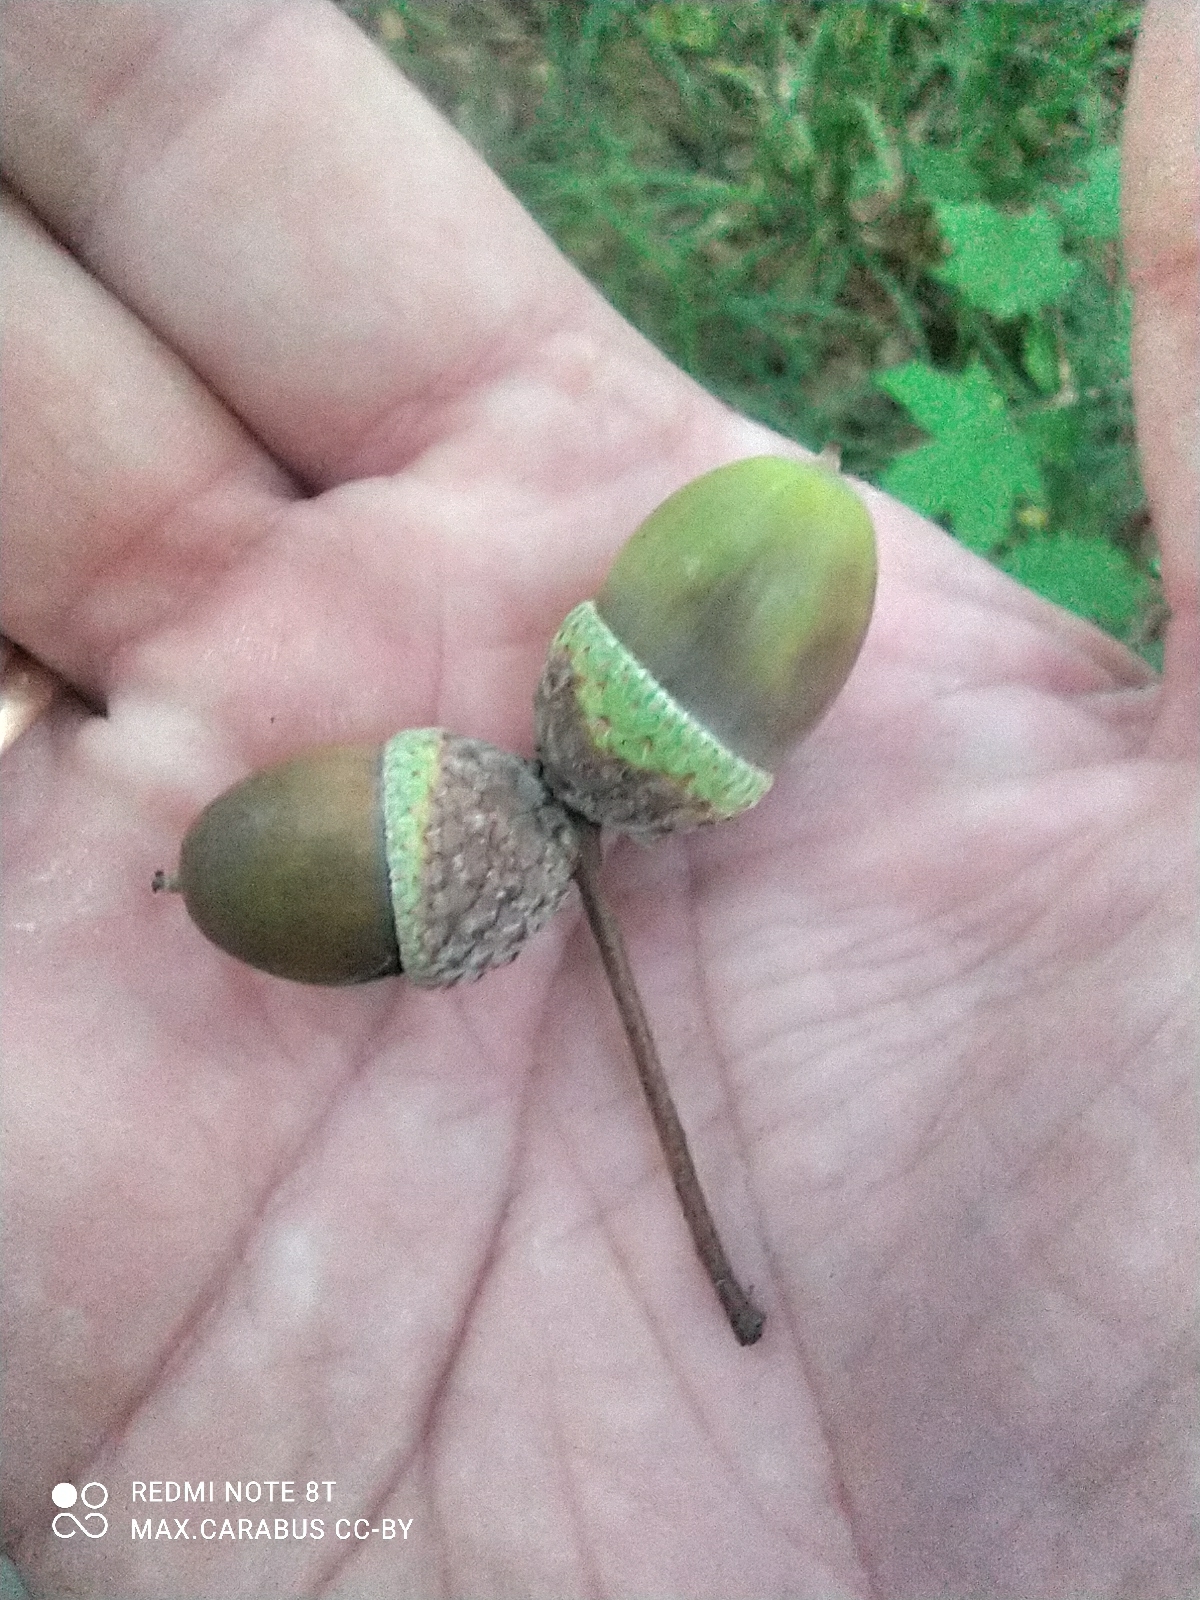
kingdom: Plantae
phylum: Tracheophyta
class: Magnoliopsida
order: Fagales
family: Fagaceae
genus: Quercus
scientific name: Quercus robur
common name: Pedunculate oak
